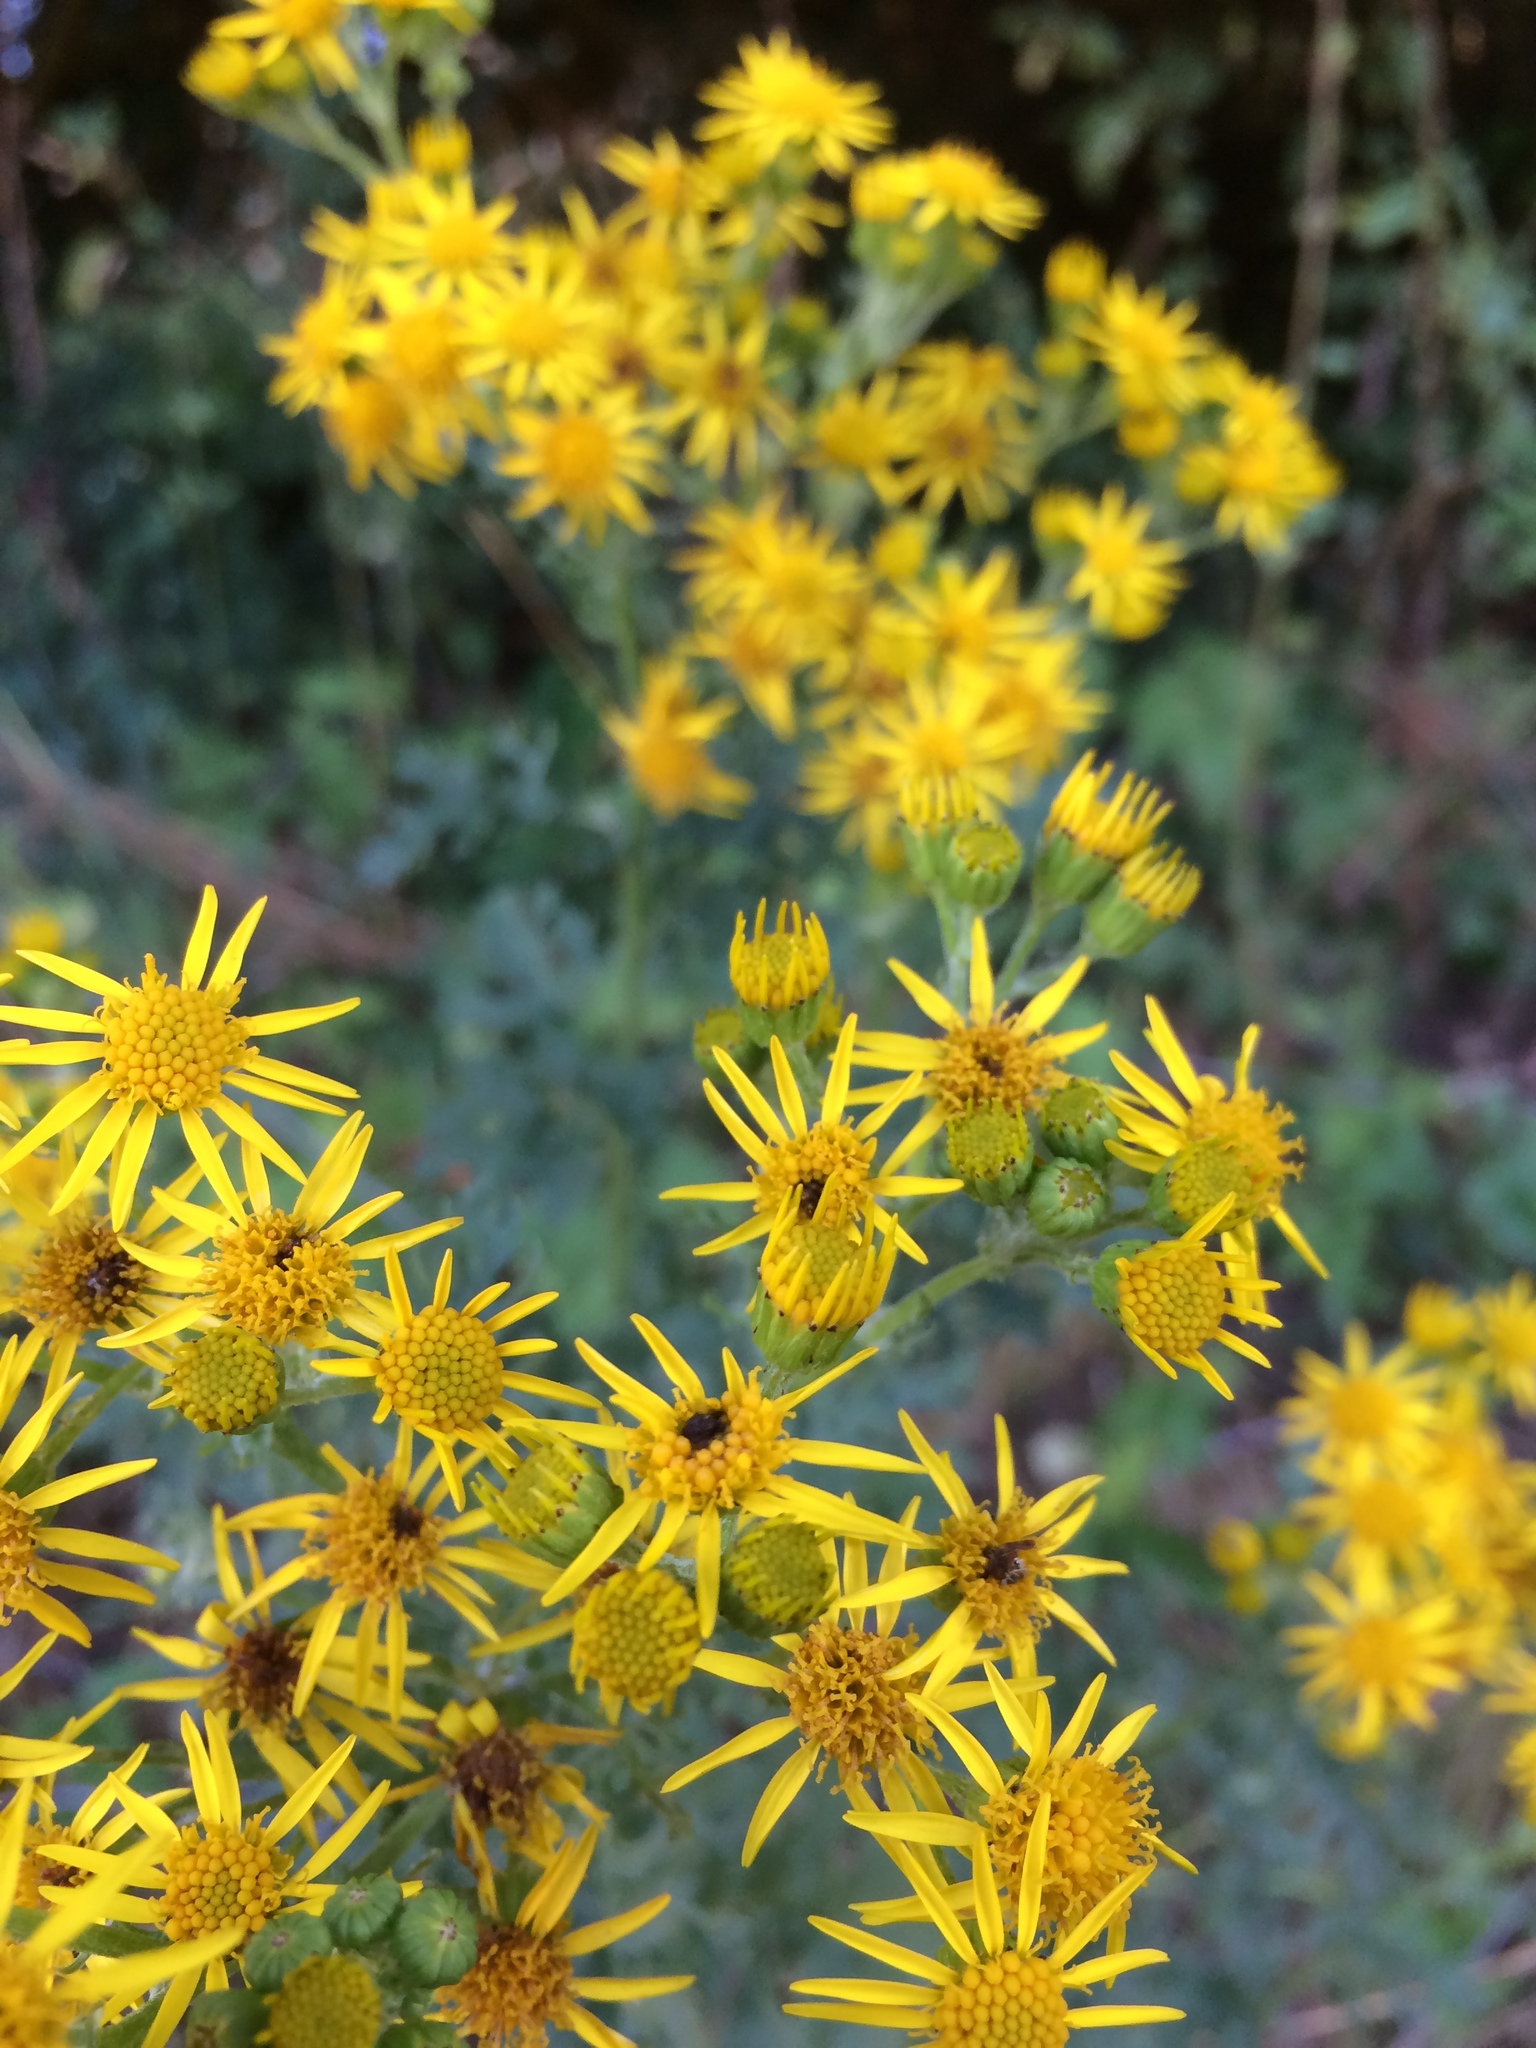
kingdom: Plantae
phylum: Tracheophyta
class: Magnoliopsida
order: Asterales
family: Asteraceae
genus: Jacobaea
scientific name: Jacobaea vulgaris
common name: Stinking willie
